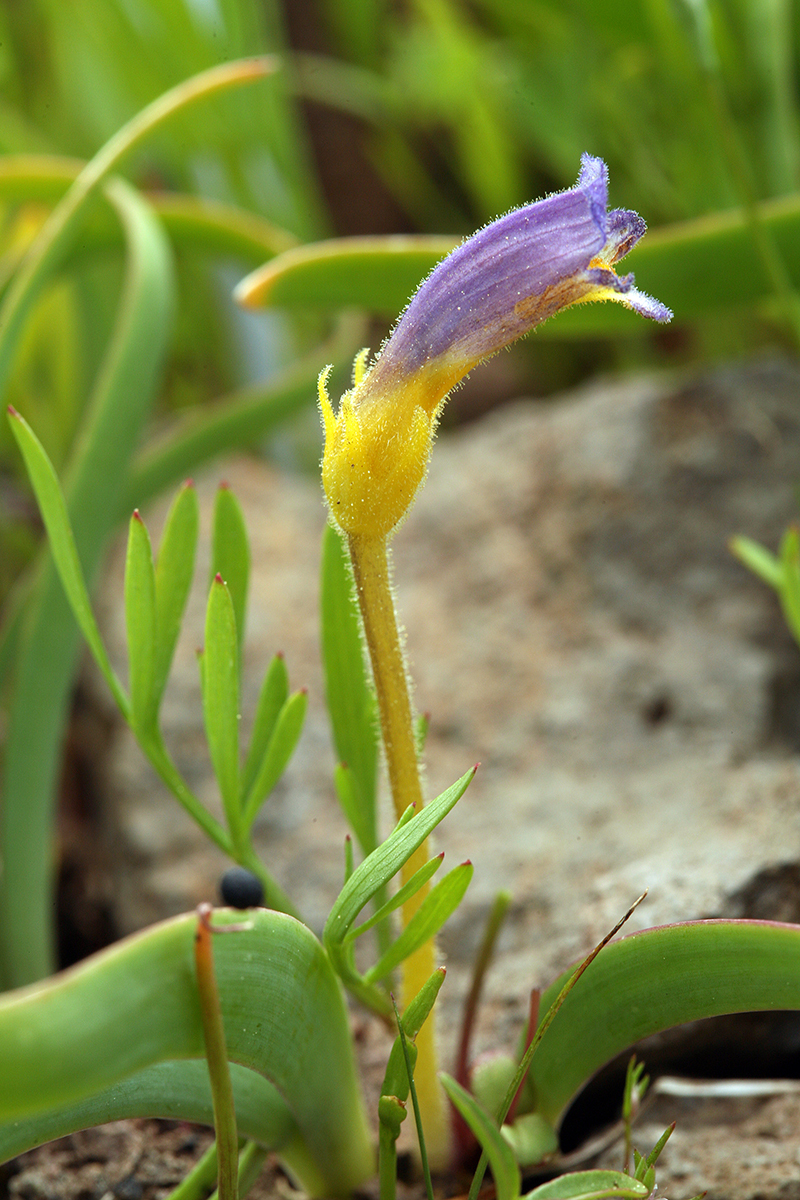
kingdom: Plantae
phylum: Tracheophyta
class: Magnoliopsida
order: Lamiales
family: Orobanchaceae
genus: Aphyllon
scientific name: Aphyllon uniflorum
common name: One-flowered broomrape
